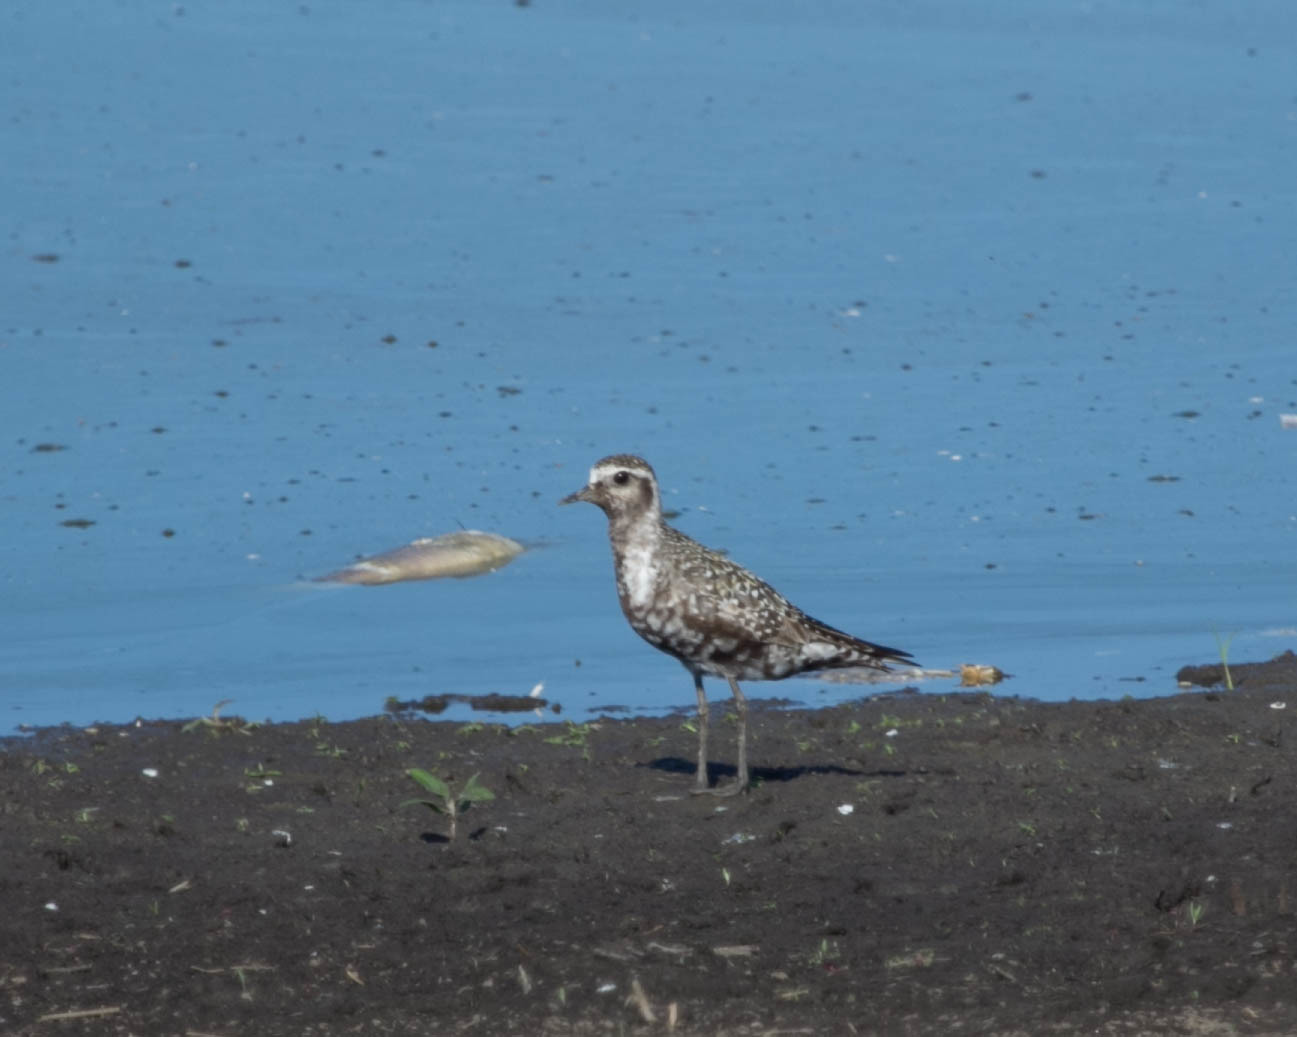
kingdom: Animalia
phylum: Chordata
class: Aves
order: Charadriiformes
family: Charadriidae
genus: Pluvialis
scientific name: Pluvialis dominica
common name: American golden plover
